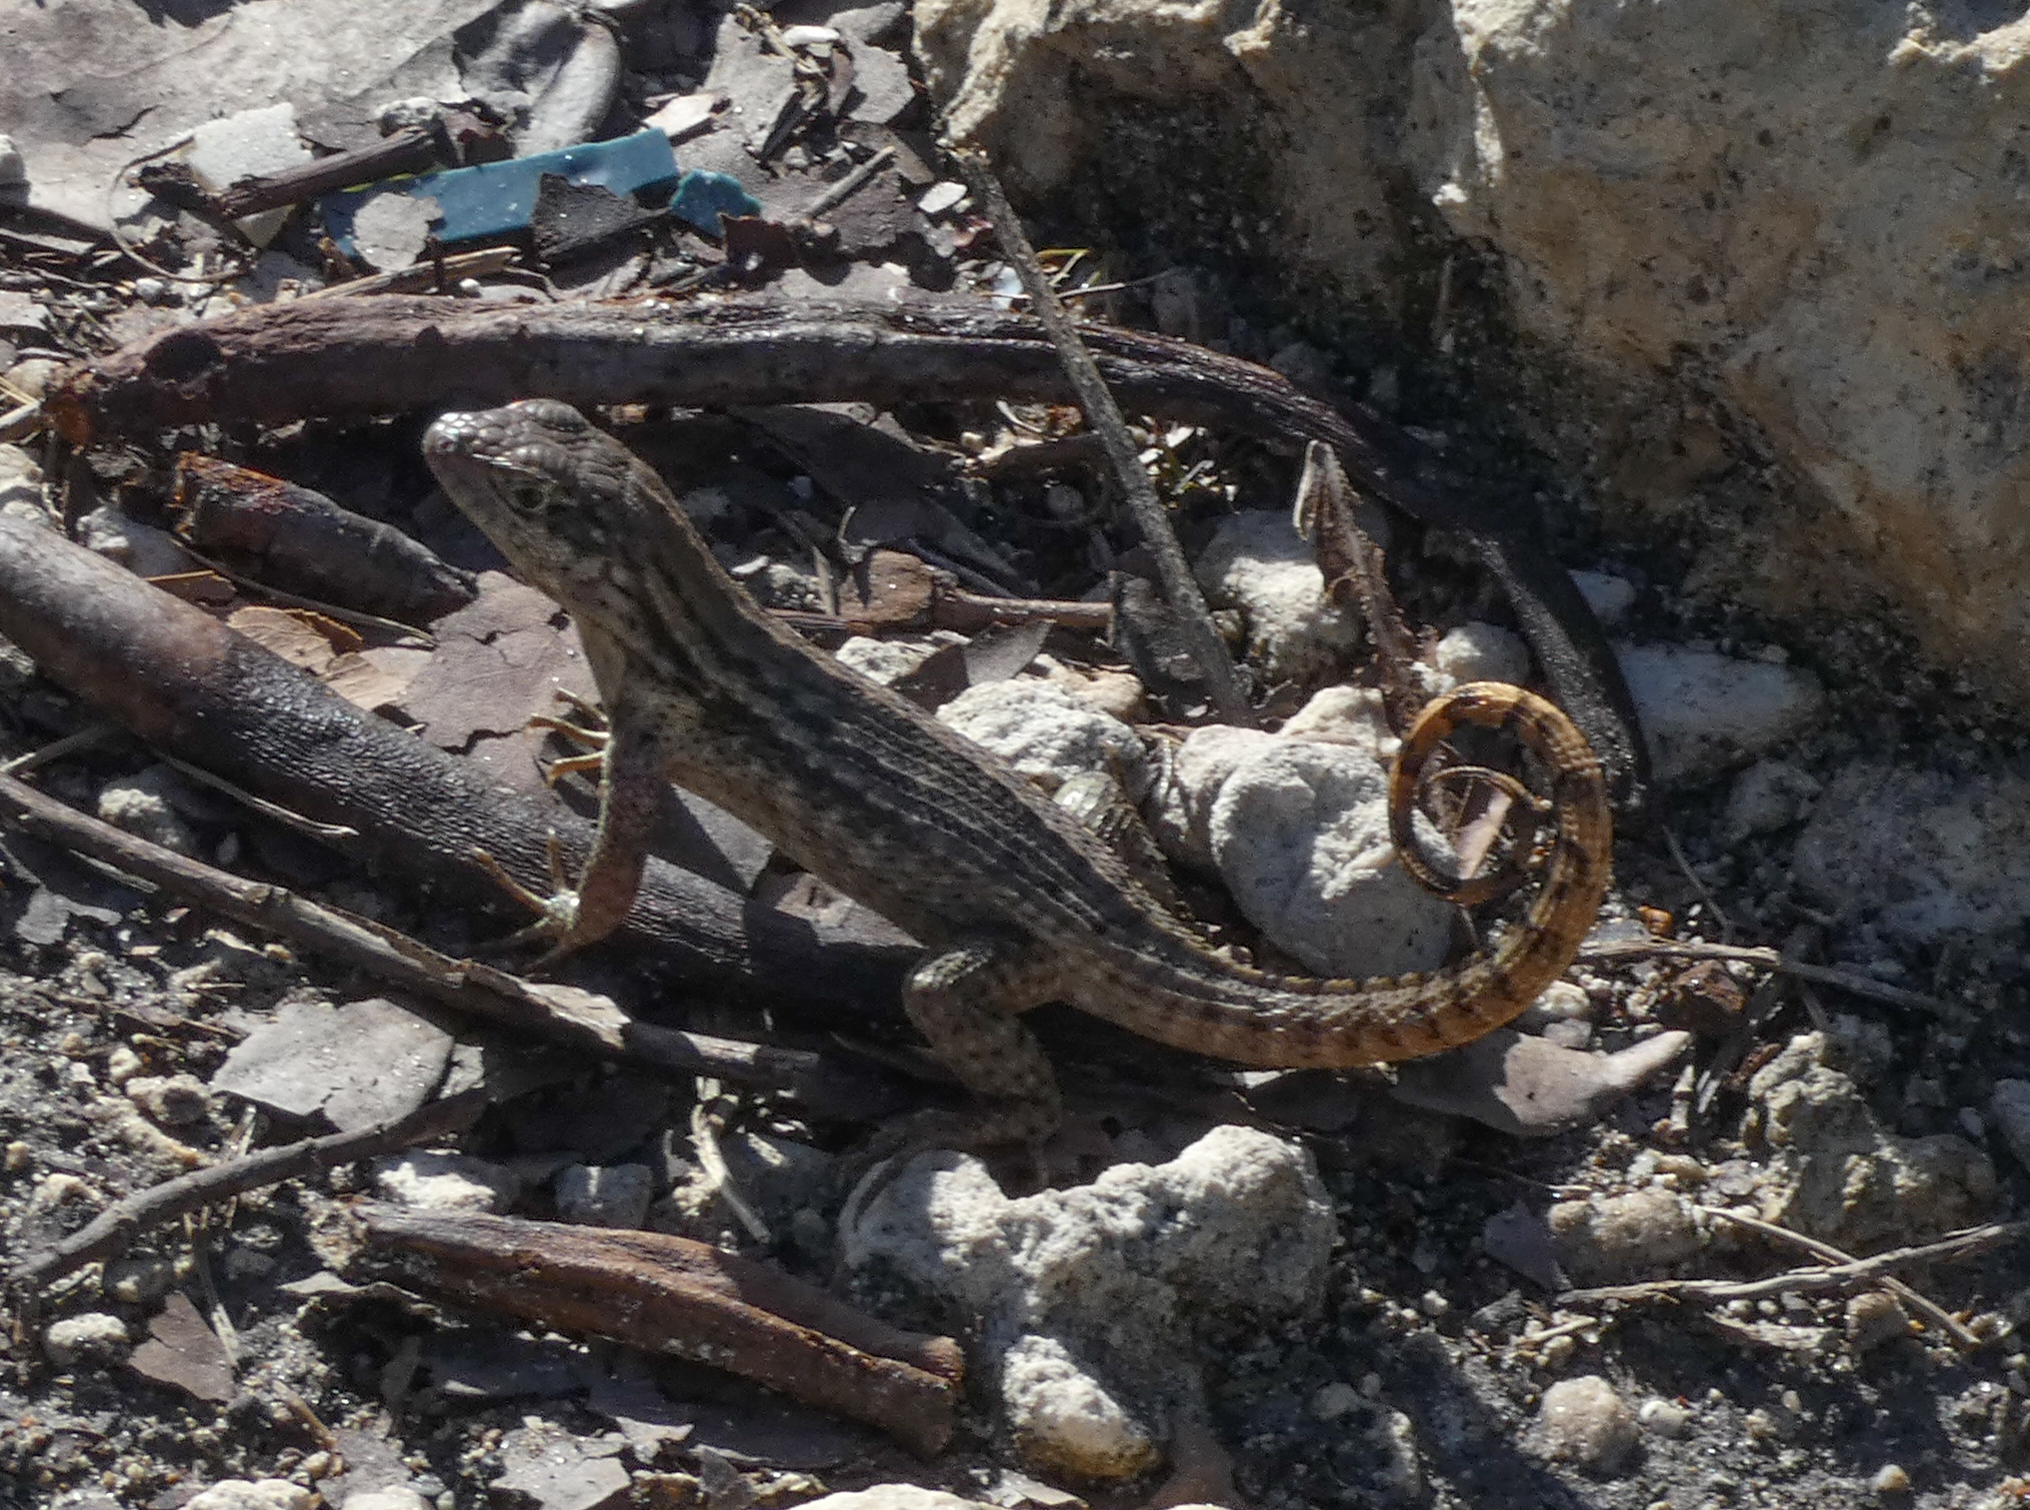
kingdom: Animalia
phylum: Chordata
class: Squamata
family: Leiocephalidae
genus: Leiocephalus
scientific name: Leiocephalus carinatus
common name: Northern curly-tailed lizard
